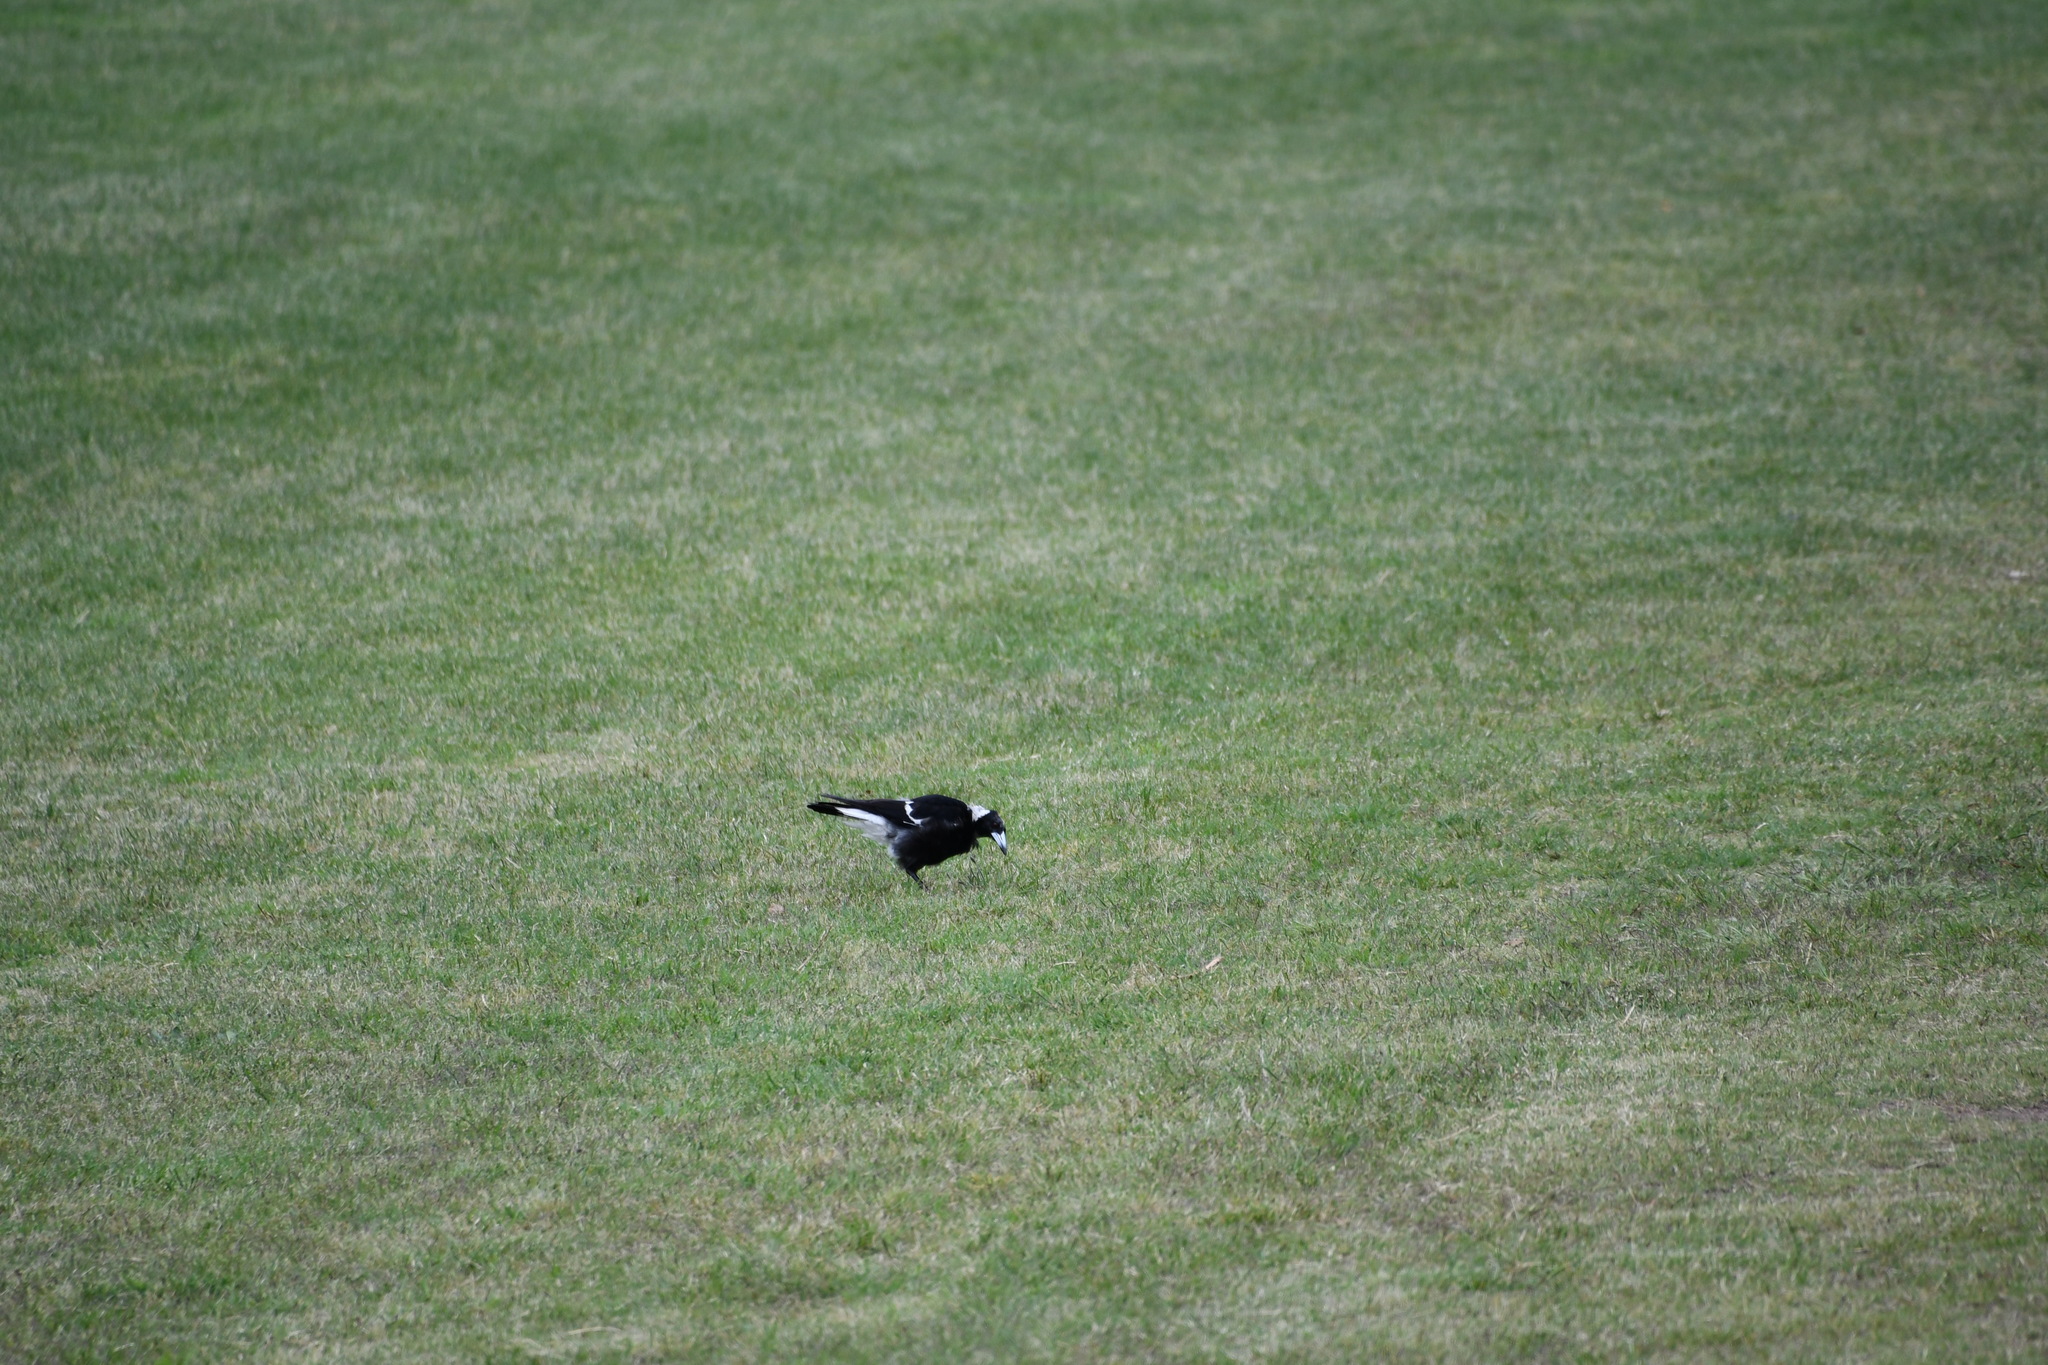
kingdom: Animalia
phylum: Chordata
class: Aves
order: Passeriformes
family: Cracticidae
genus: Gymnorhina
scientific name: Gymnorhina tibicen
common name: Australian magpie
